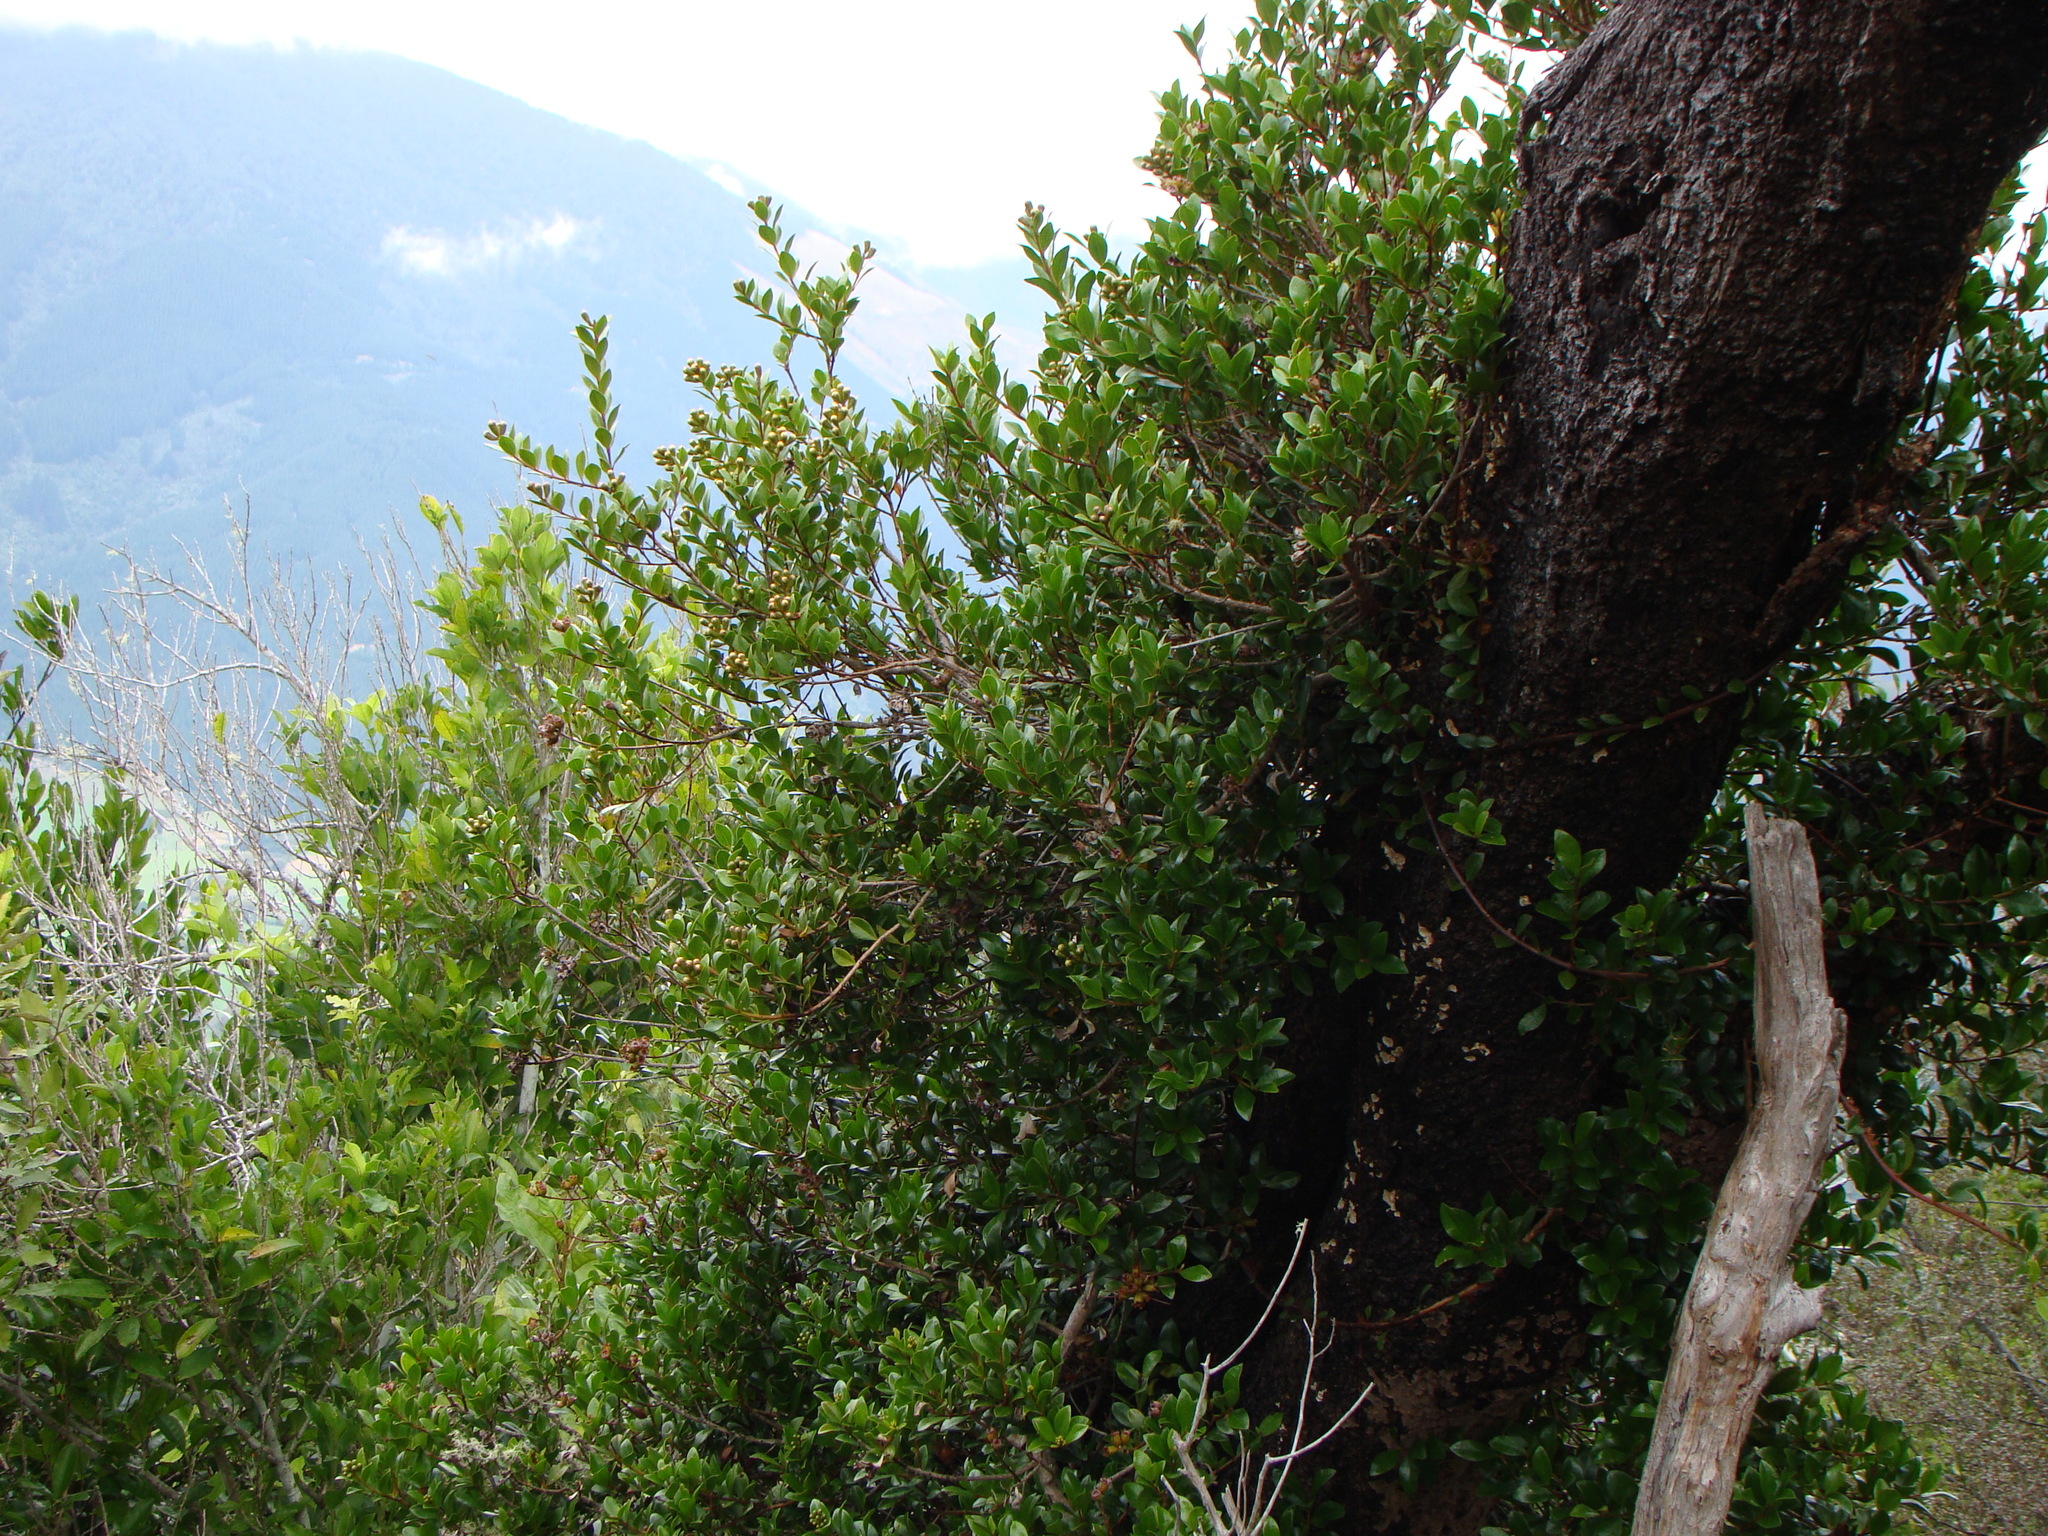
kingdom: Plantae
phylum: Tracheophyta
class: Magnoliopsida
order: Myrtales
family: Myrtaceae
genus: Metrosideros
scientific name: Metrosideros fulgens
